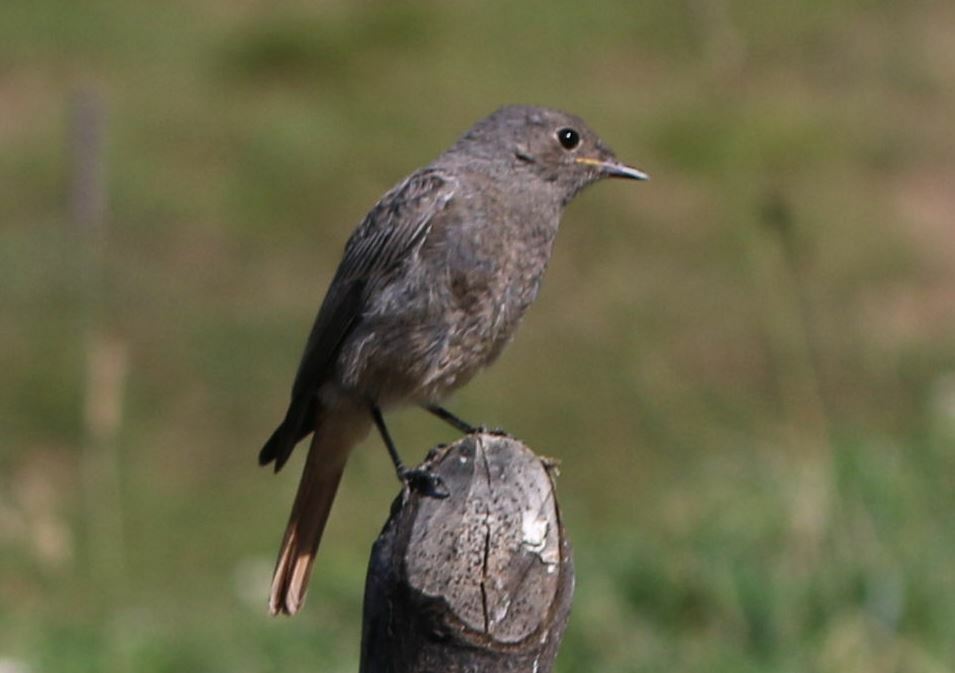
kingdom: Animalia
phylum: Chordata
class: Aves
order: Passeriformes
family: Muscicapidae
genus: Phoenicurus
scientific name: Phoenicurus ochruros
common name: Black redstart
